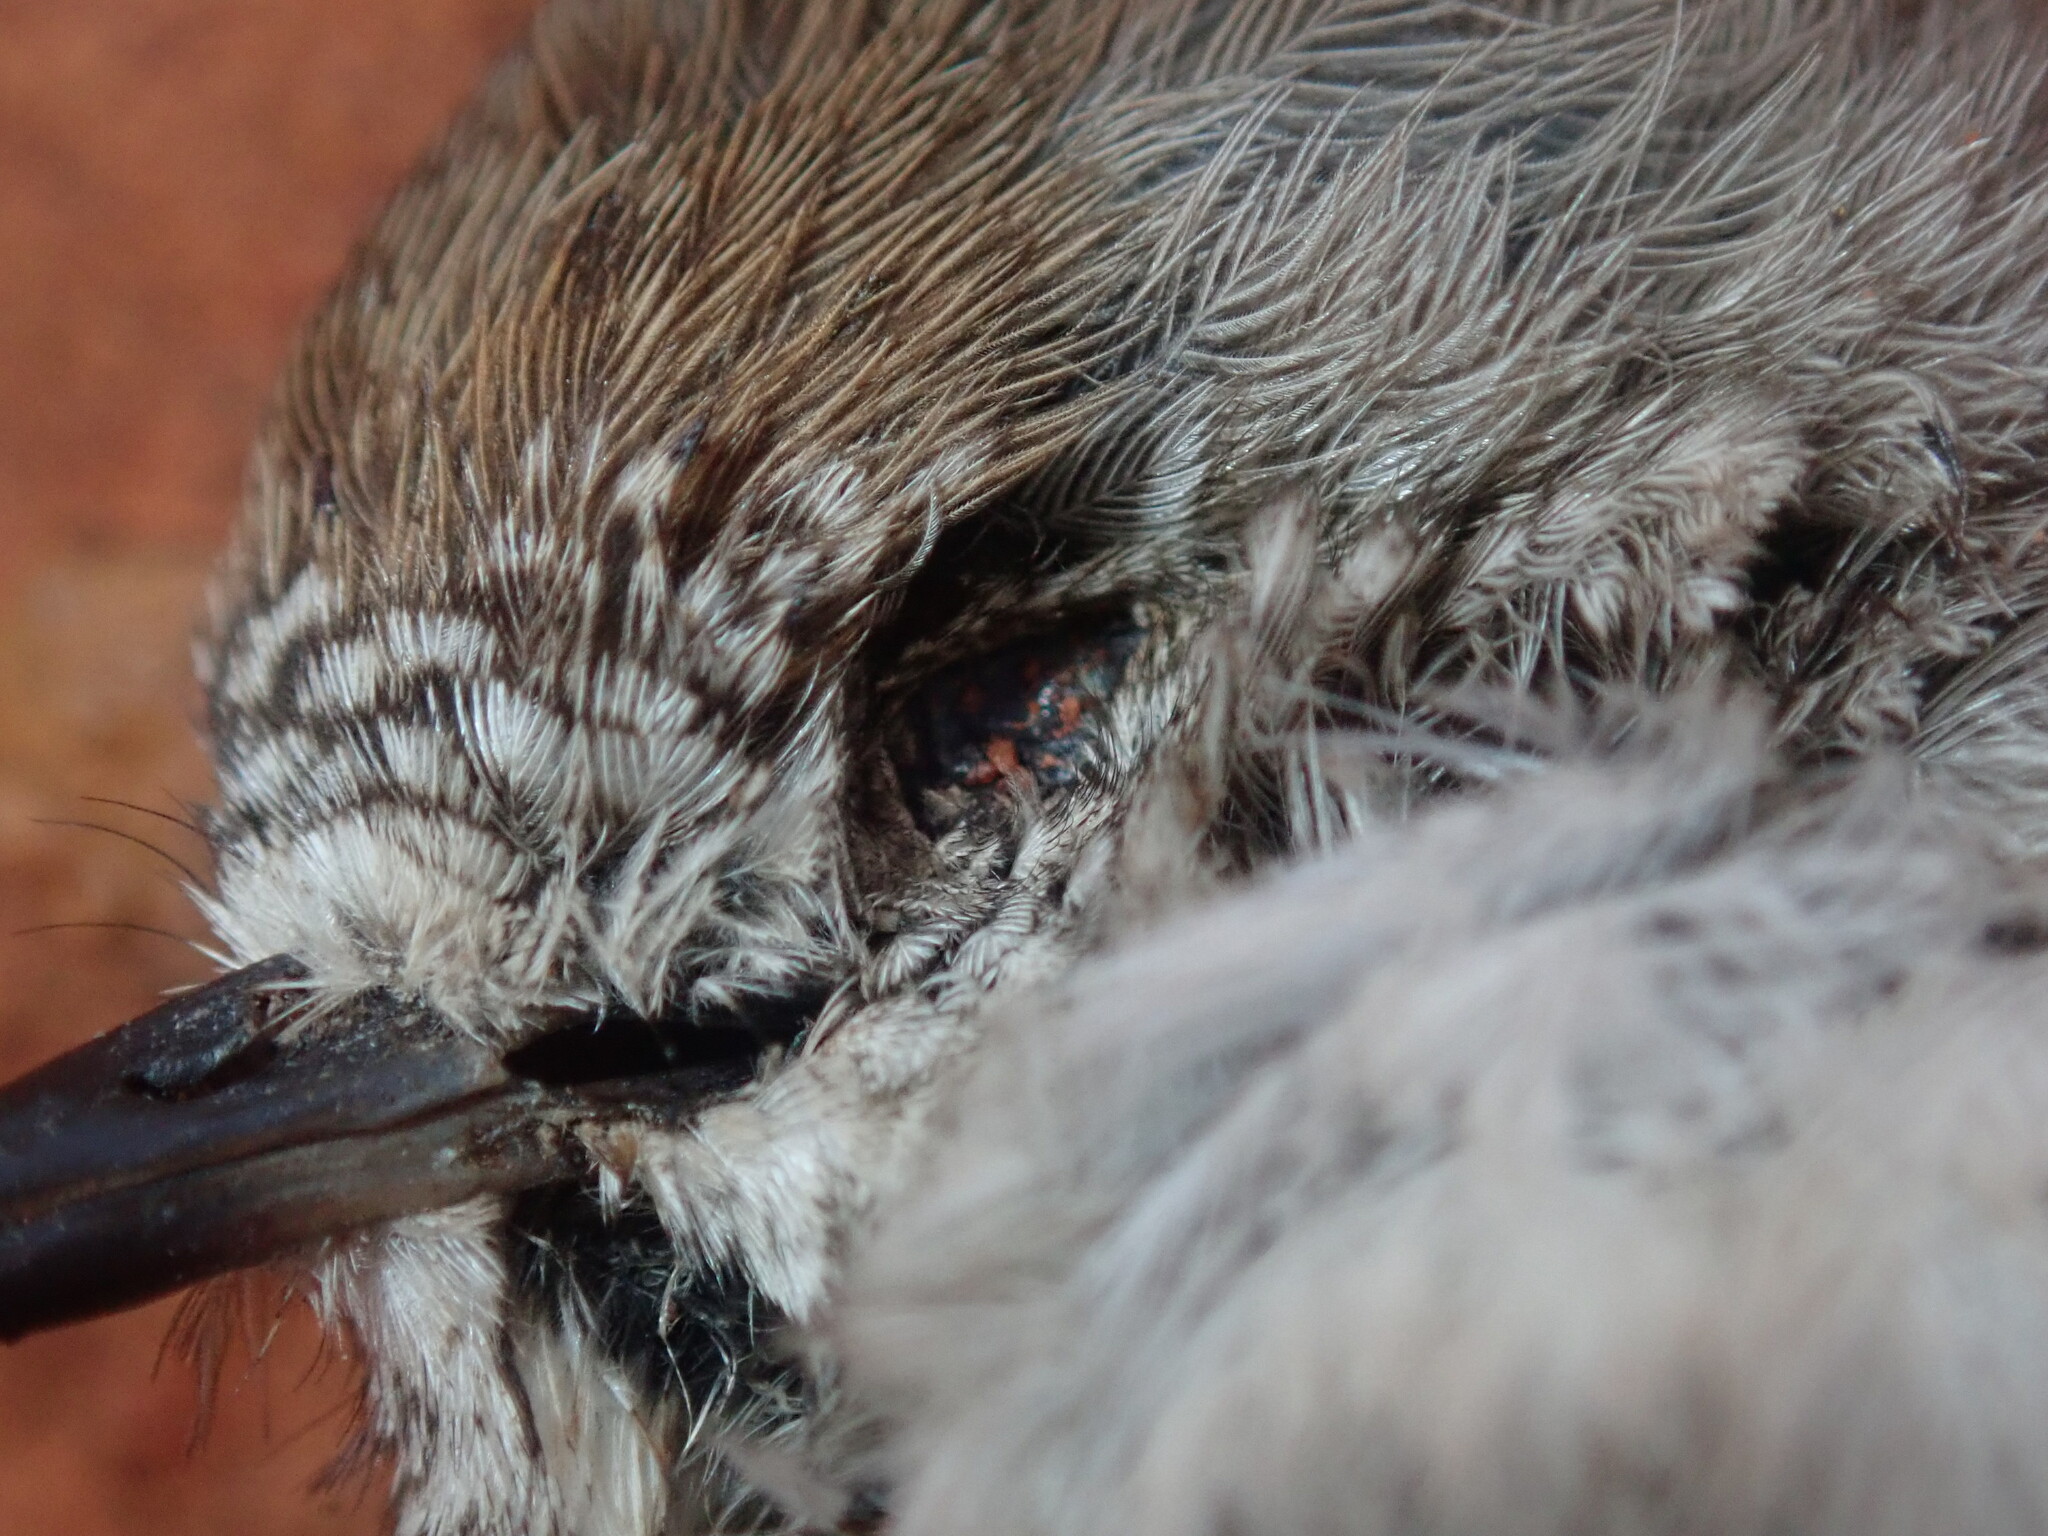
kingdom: Animalia
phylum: Chordata
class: Aves
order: Passeriformes
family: Acanthizidae
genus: Acanthiza
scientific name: Acanthiza uropygialis
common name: Chestnut-rumped thornbill
